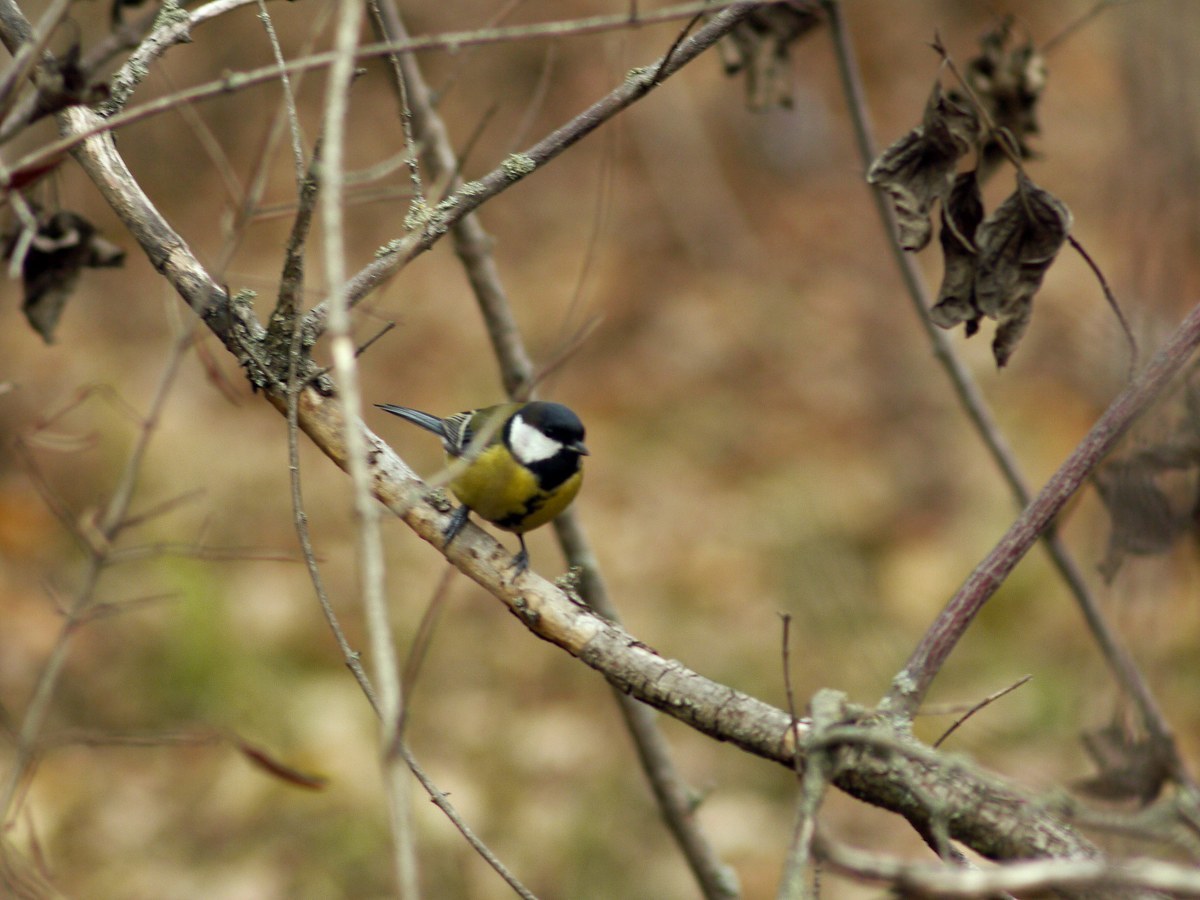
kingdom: Animalia
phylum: Chordata
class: Aves
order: Passeriformes
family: Paridae
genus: Parus
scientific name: Parus major
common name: Great tit
